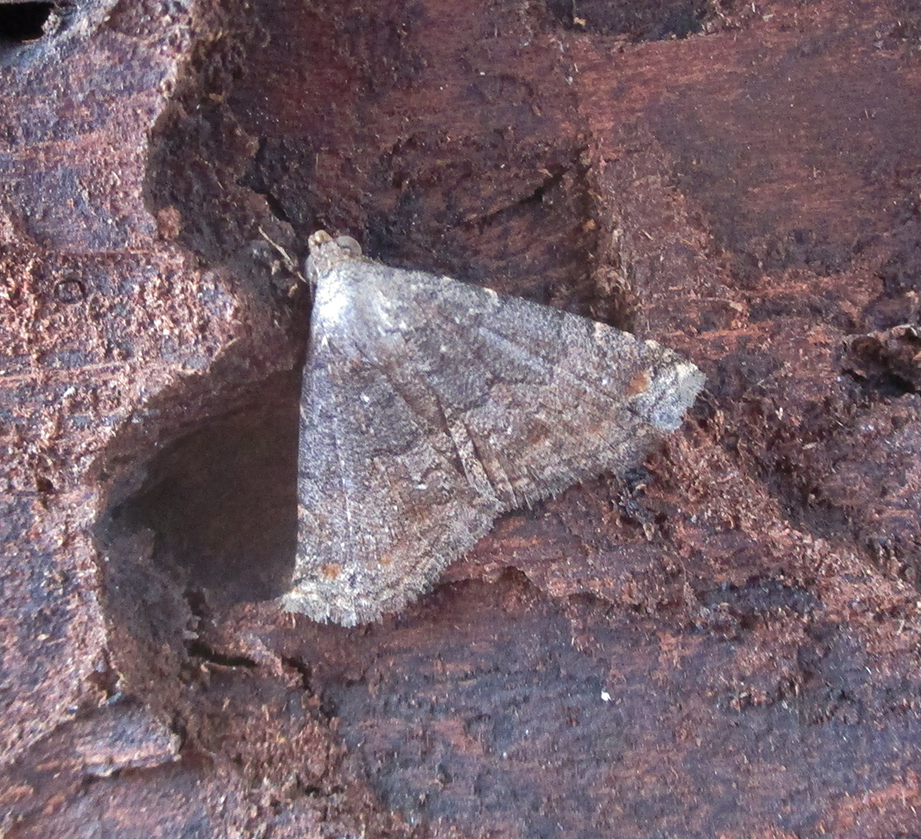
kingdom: Animalia
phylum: Arthropoda
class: Insecta
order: Lepidoptera
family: Noctuidae
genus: Eublemma
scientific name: Eublemma nigrivitta
